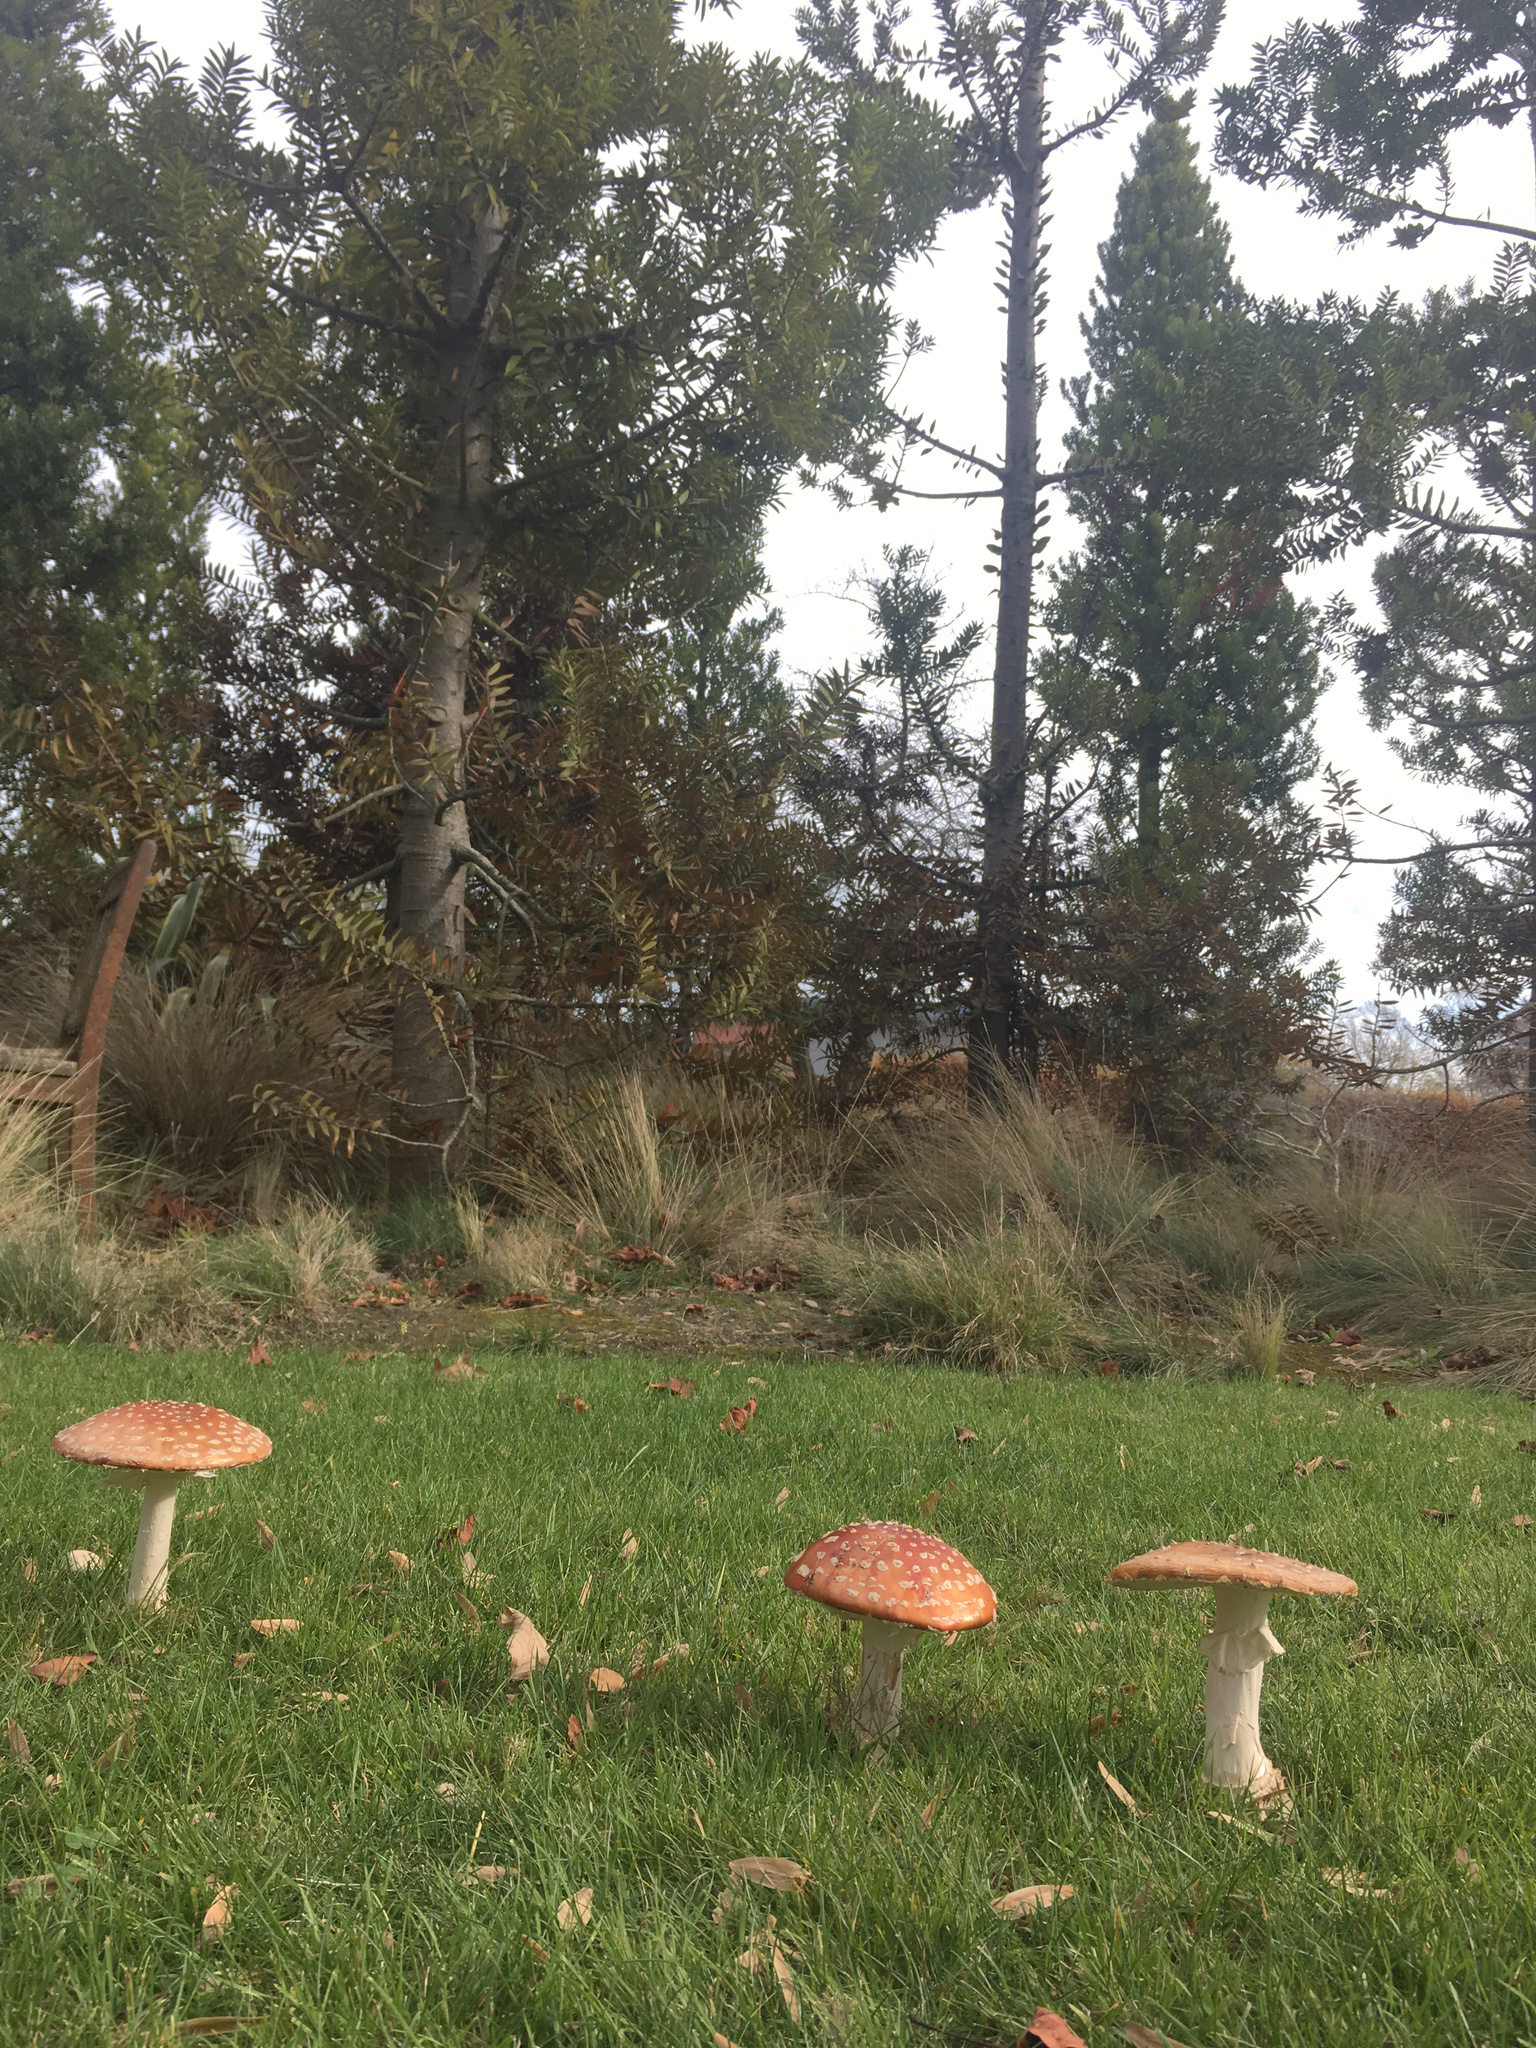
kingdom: Fungi
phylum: Basidiomycota
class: Agaricomycetes
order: Agaricales
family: Amanitaceae
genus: Amanita
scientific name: Amanita muscaria
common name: Fly agaric
